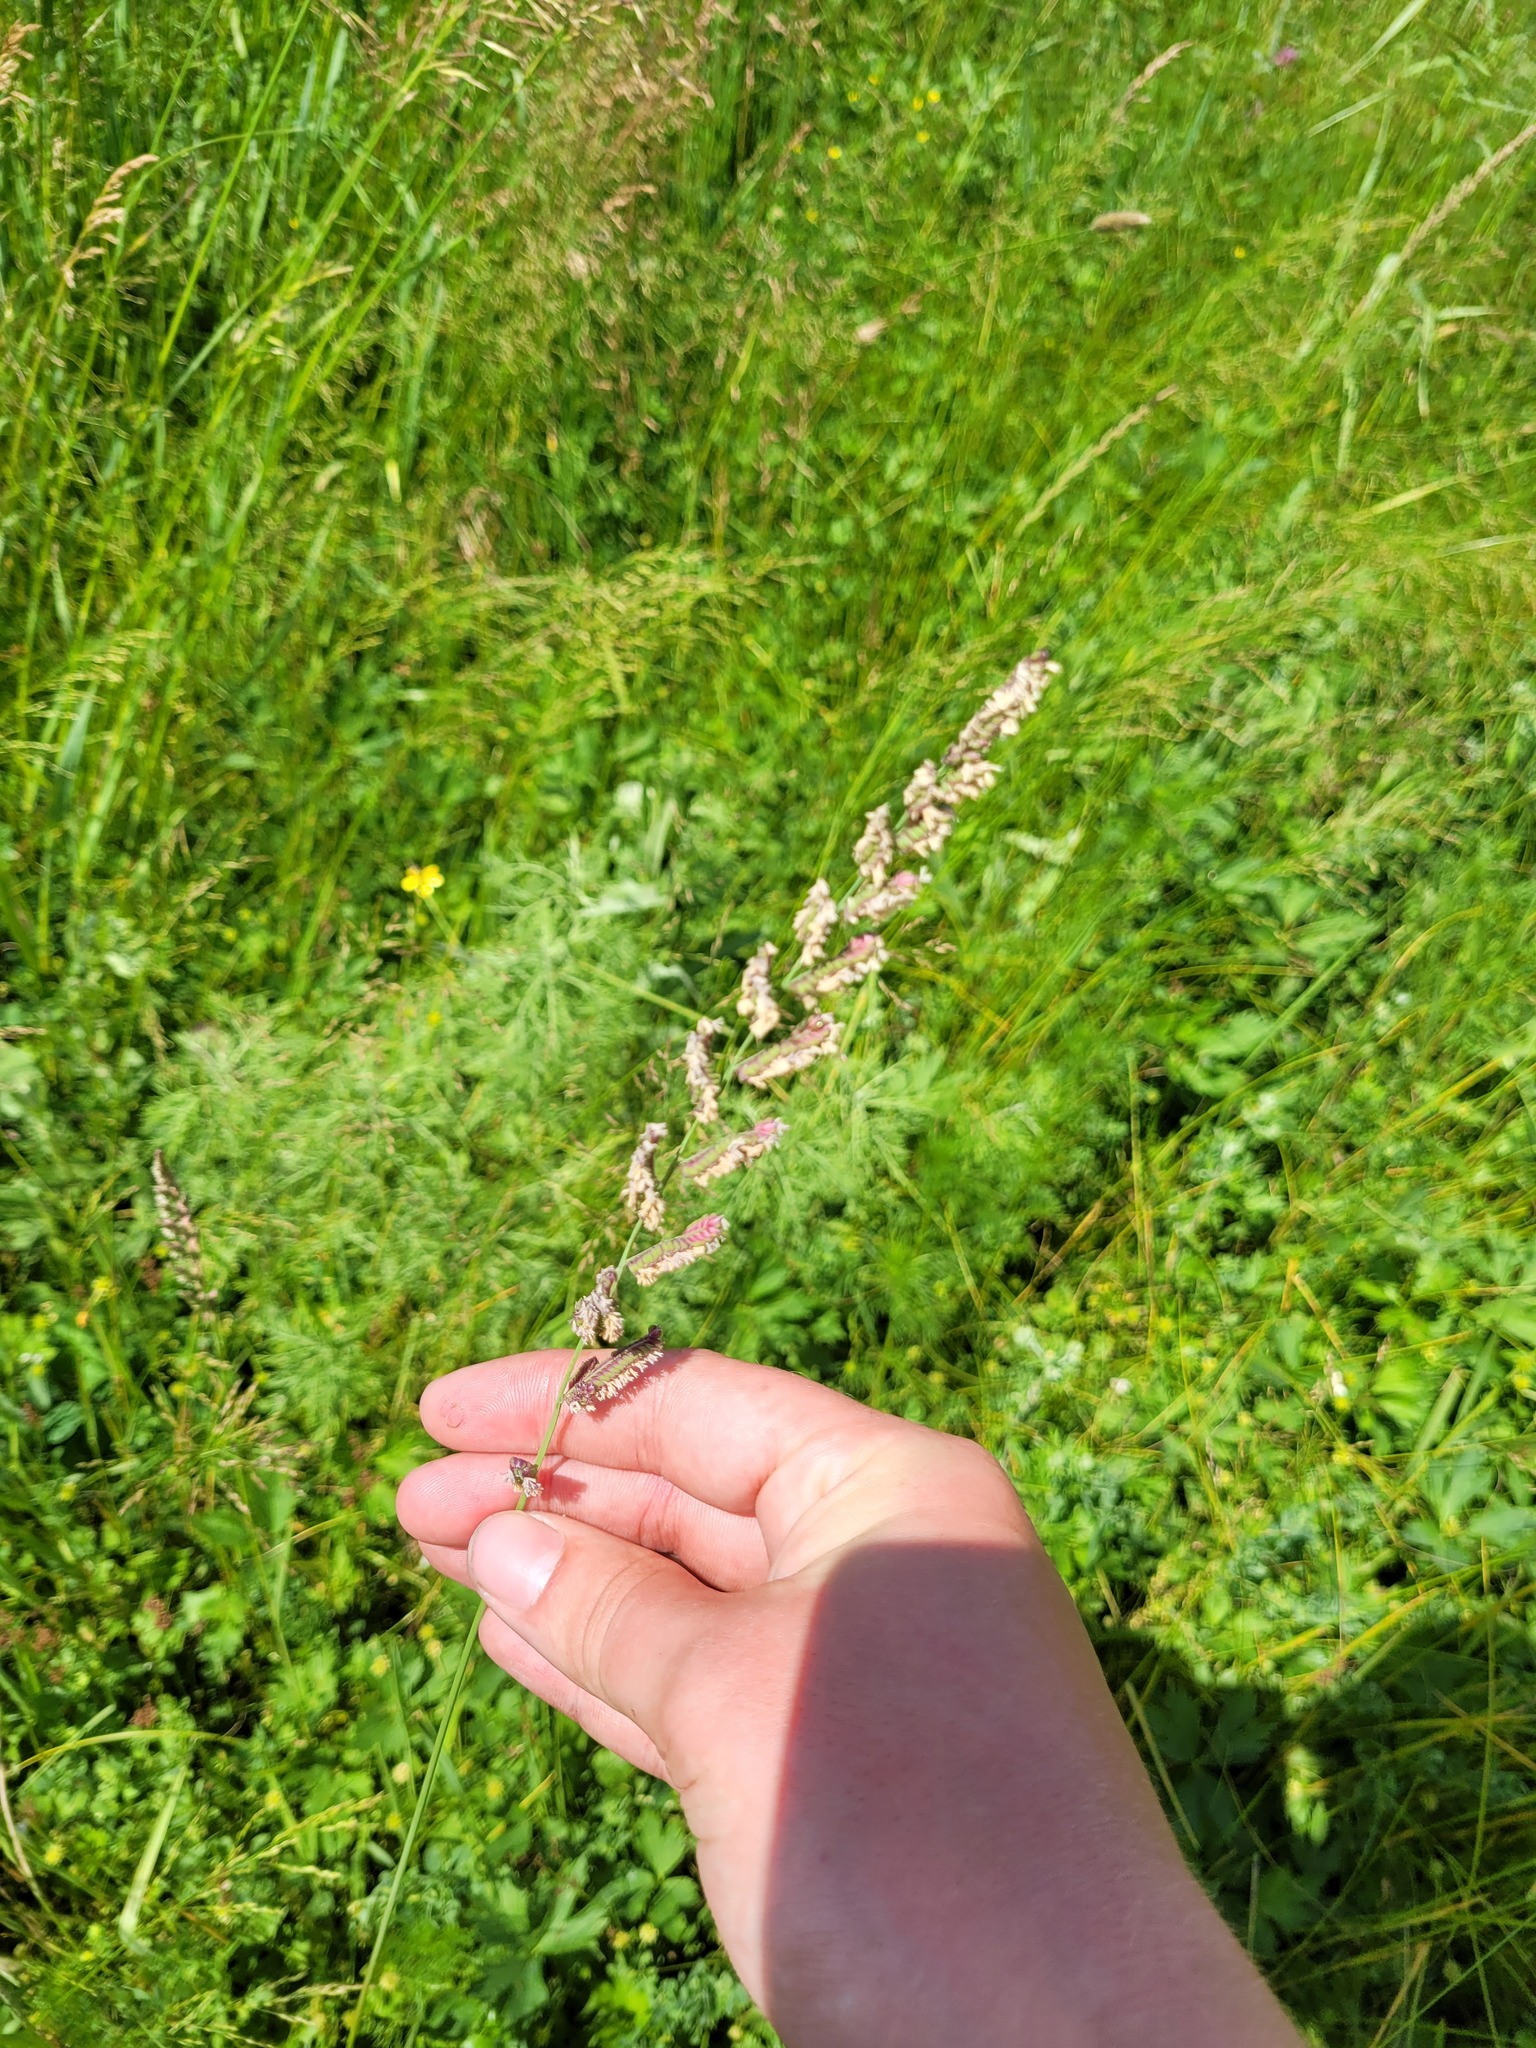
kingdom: Plantae
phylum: Tracheophyta
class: Liliopsida
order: Poales
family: Poaceae
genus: Beckmannia
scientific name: Beckmannia eruciformis
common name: European slough-grass
